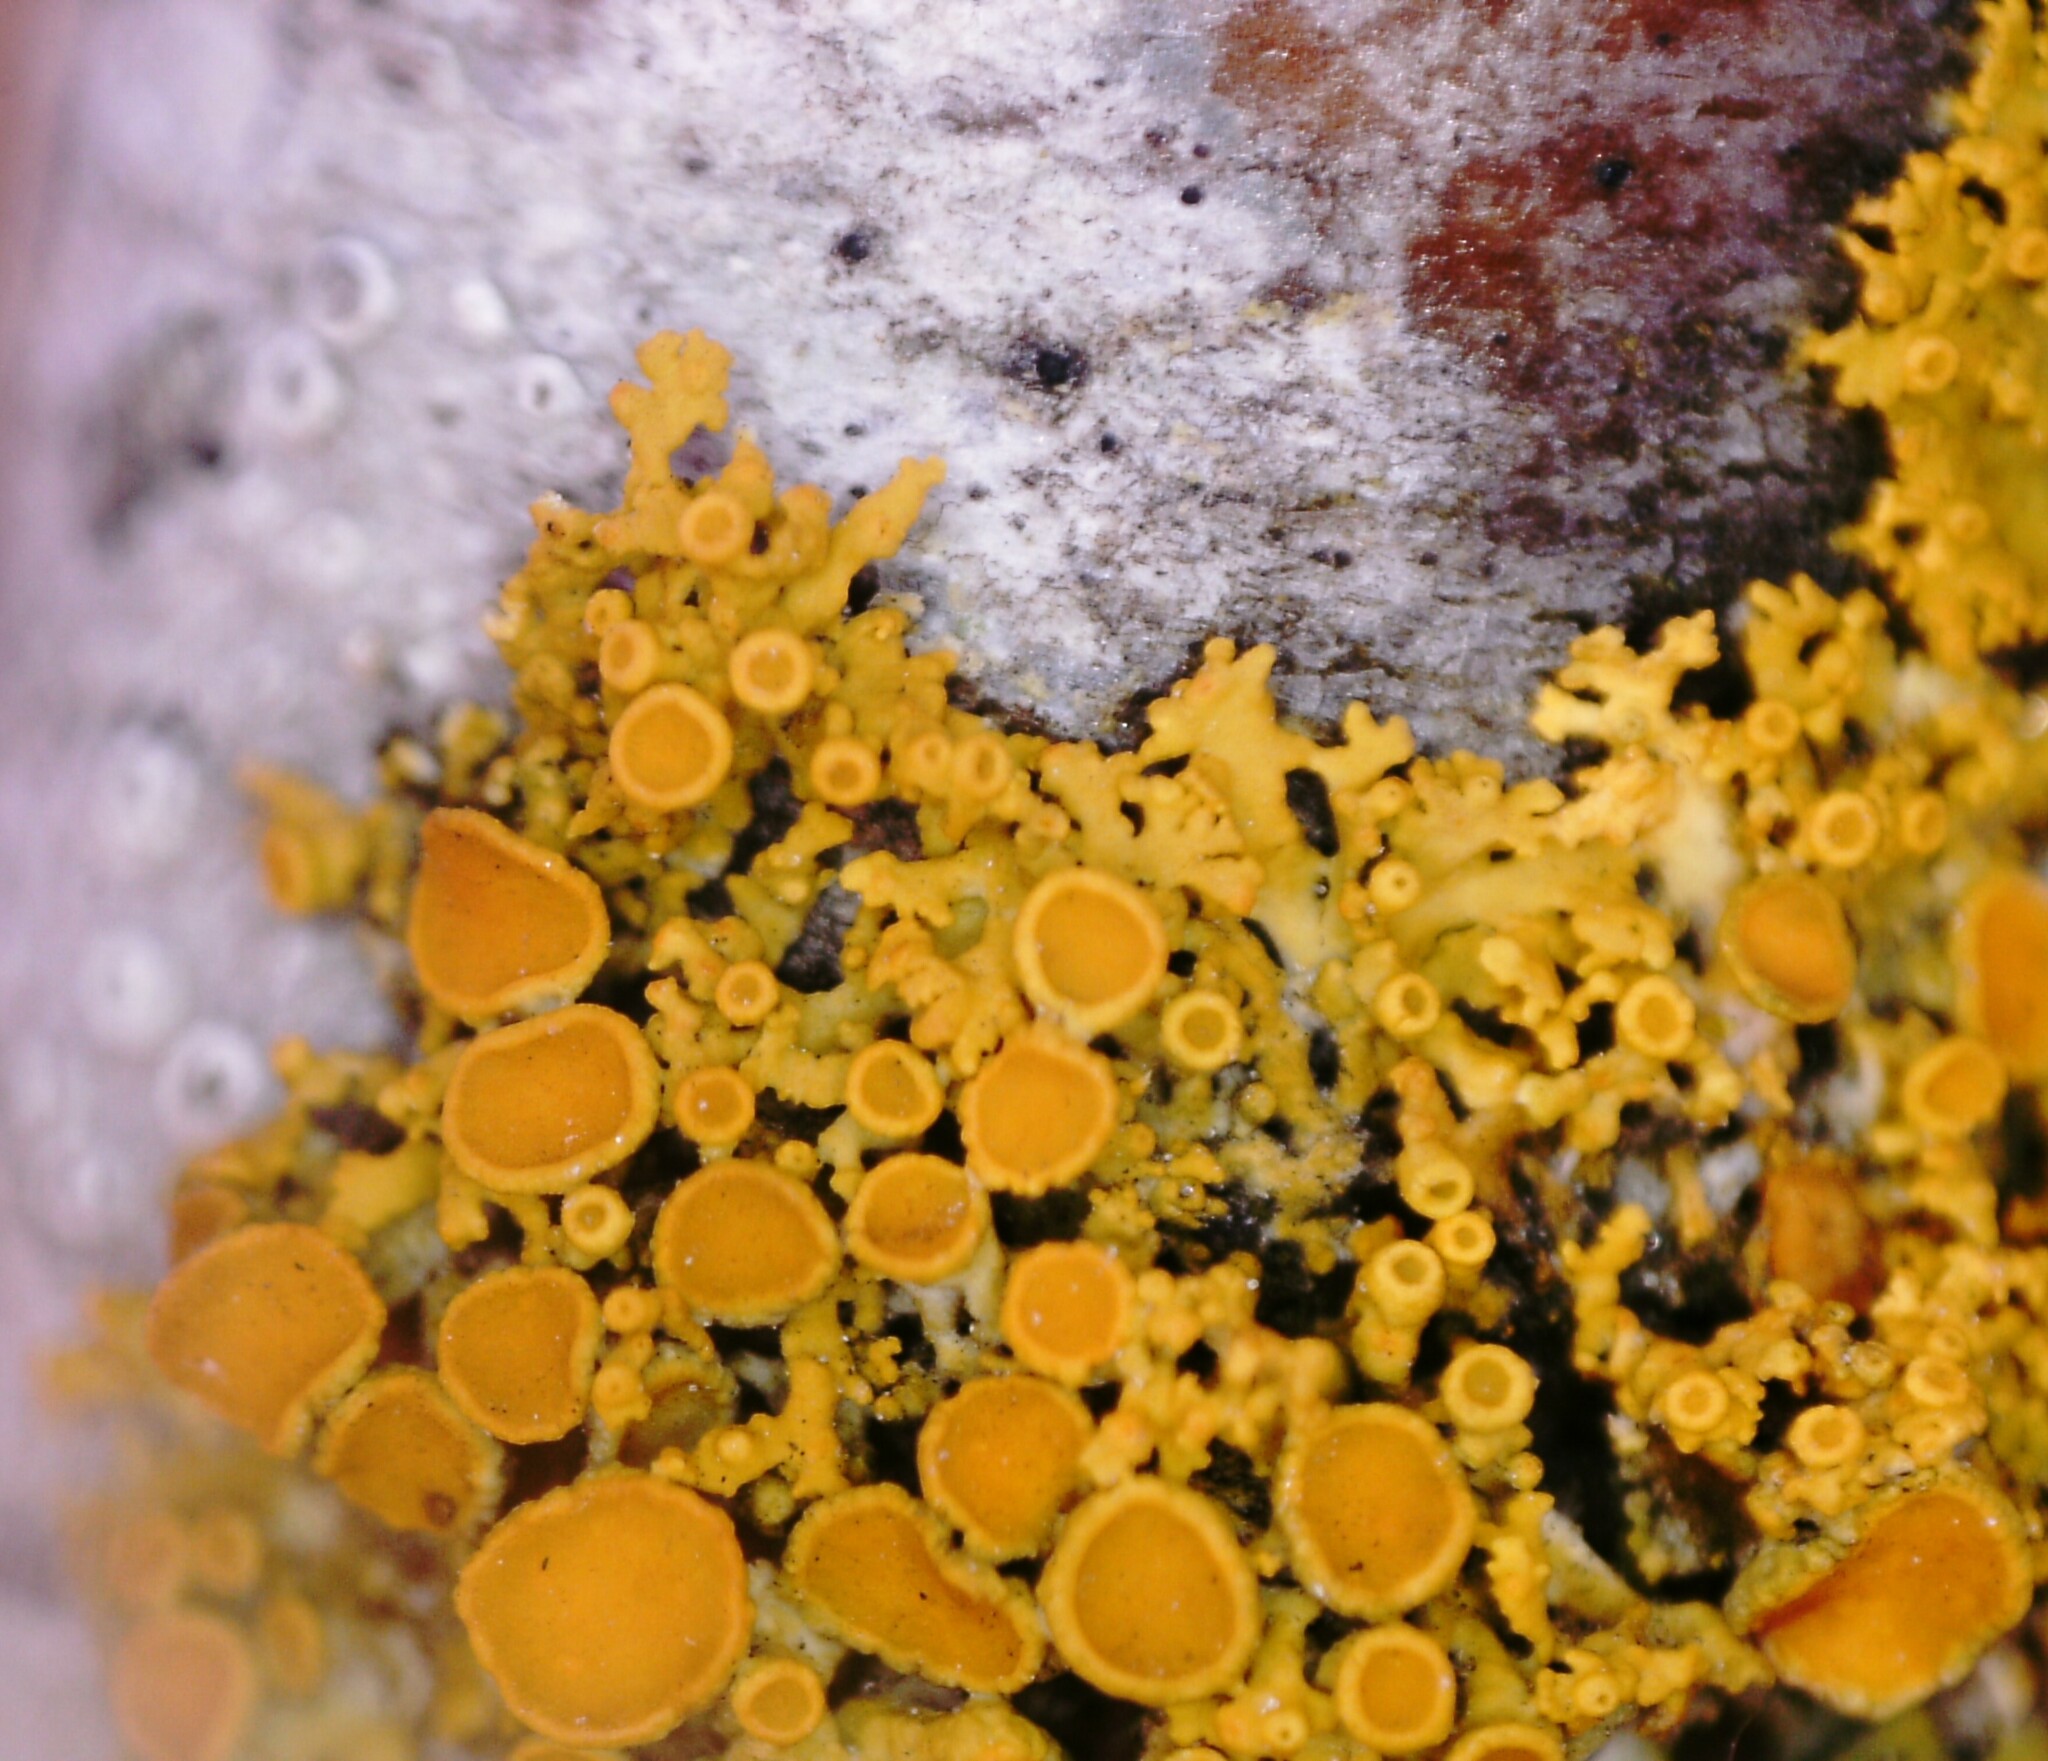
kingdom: Fungi
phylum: Ascomycota
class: Lecanoromycetes
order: Teloschistales
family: Teloschistaceae
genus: Polycauliona
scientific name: Polycauliona polycarpa
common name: Pin-cushion sunburst lichen
